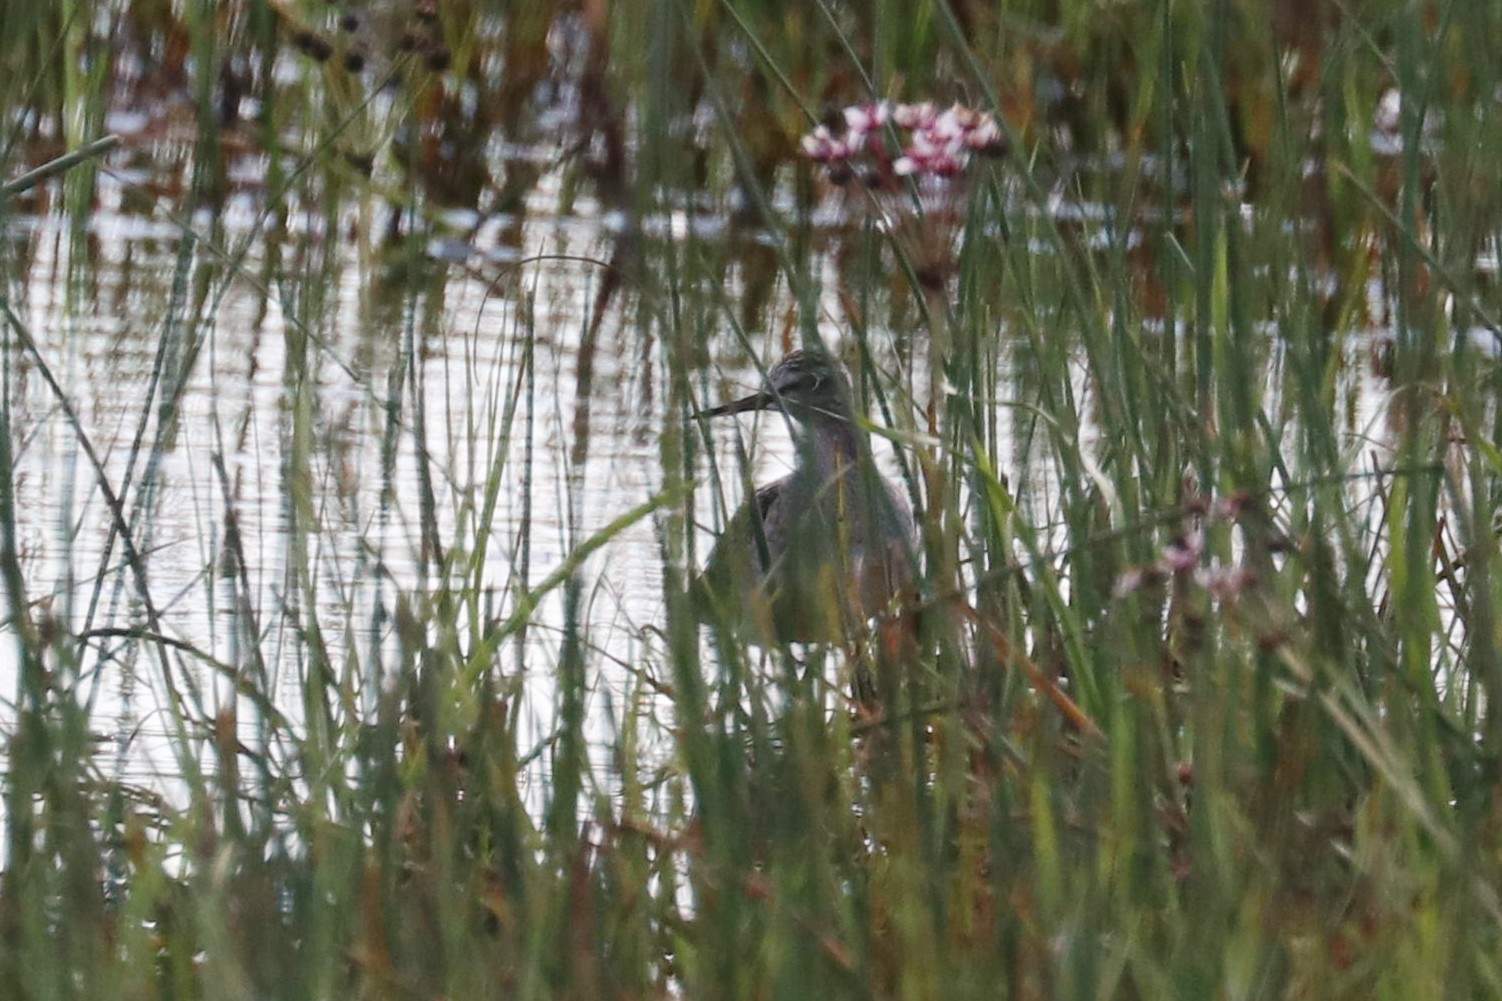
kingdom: Animalia
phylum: Chordata
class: Aves
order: Charadriiformes
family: Scolopacidae
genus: Tringa
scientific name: Tringa glareola
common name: Wood sandpiper
